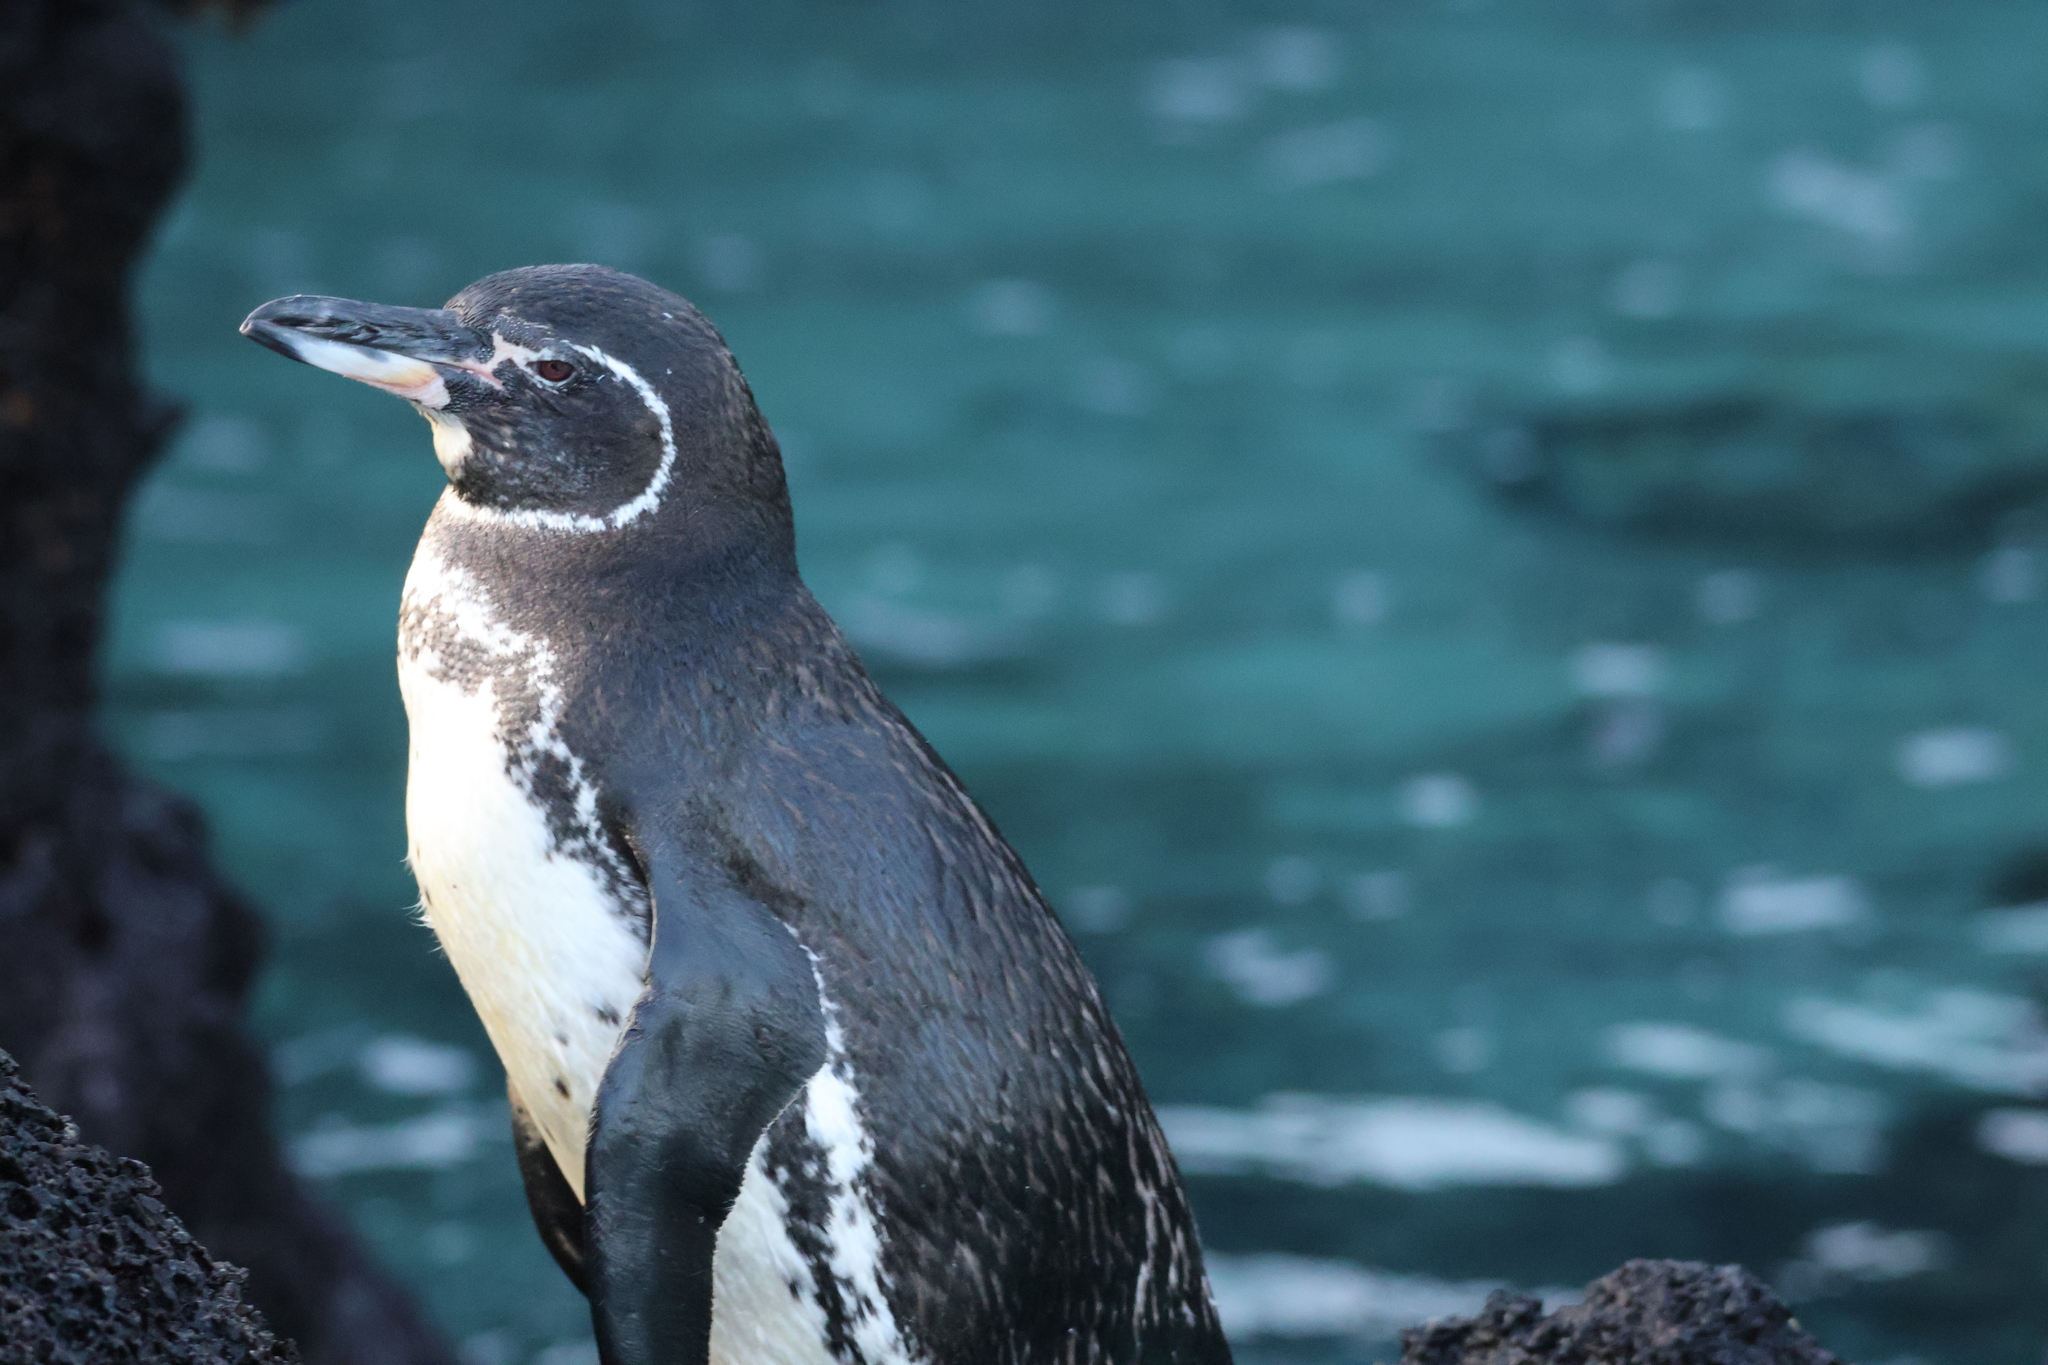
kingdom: Animalia
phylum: Chordata
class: Aves
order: Sphenisciformes
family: Spheniscidae
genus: Spheniscus
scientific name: Spheniscus mendiculus
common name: Galapagos penguin
